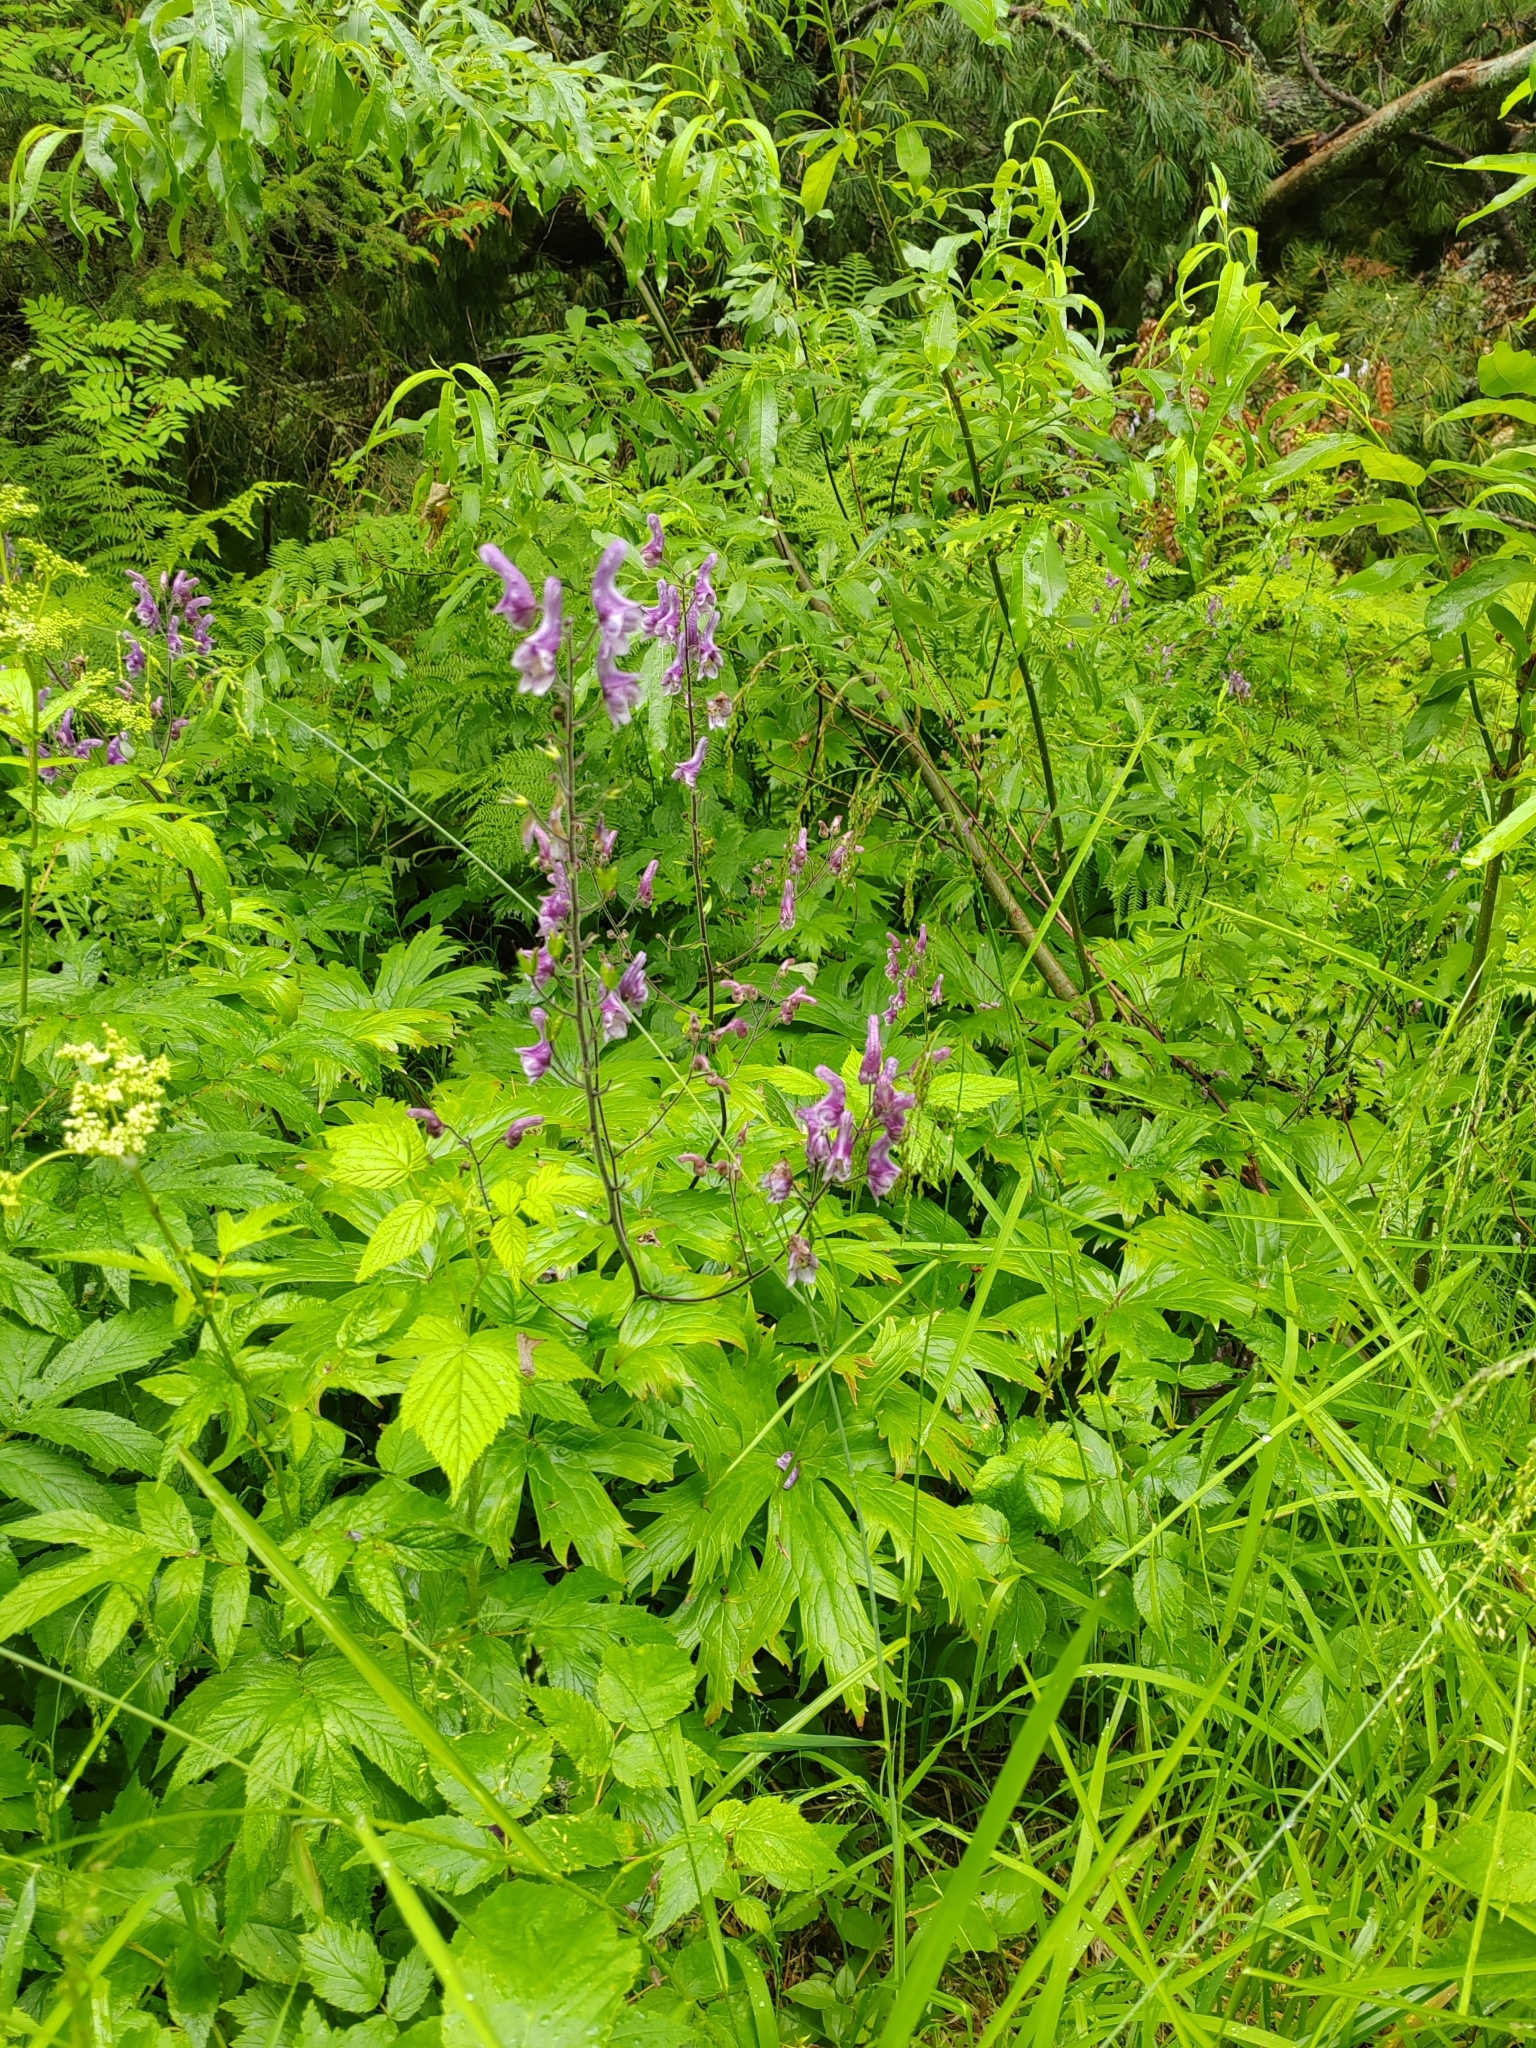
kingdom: Plantae
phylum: Tracheophyta
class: Magnoliopsida
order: Ranunculales
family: Ranunculaceae
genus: Aconitum
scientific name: Aconitum septentrionale
